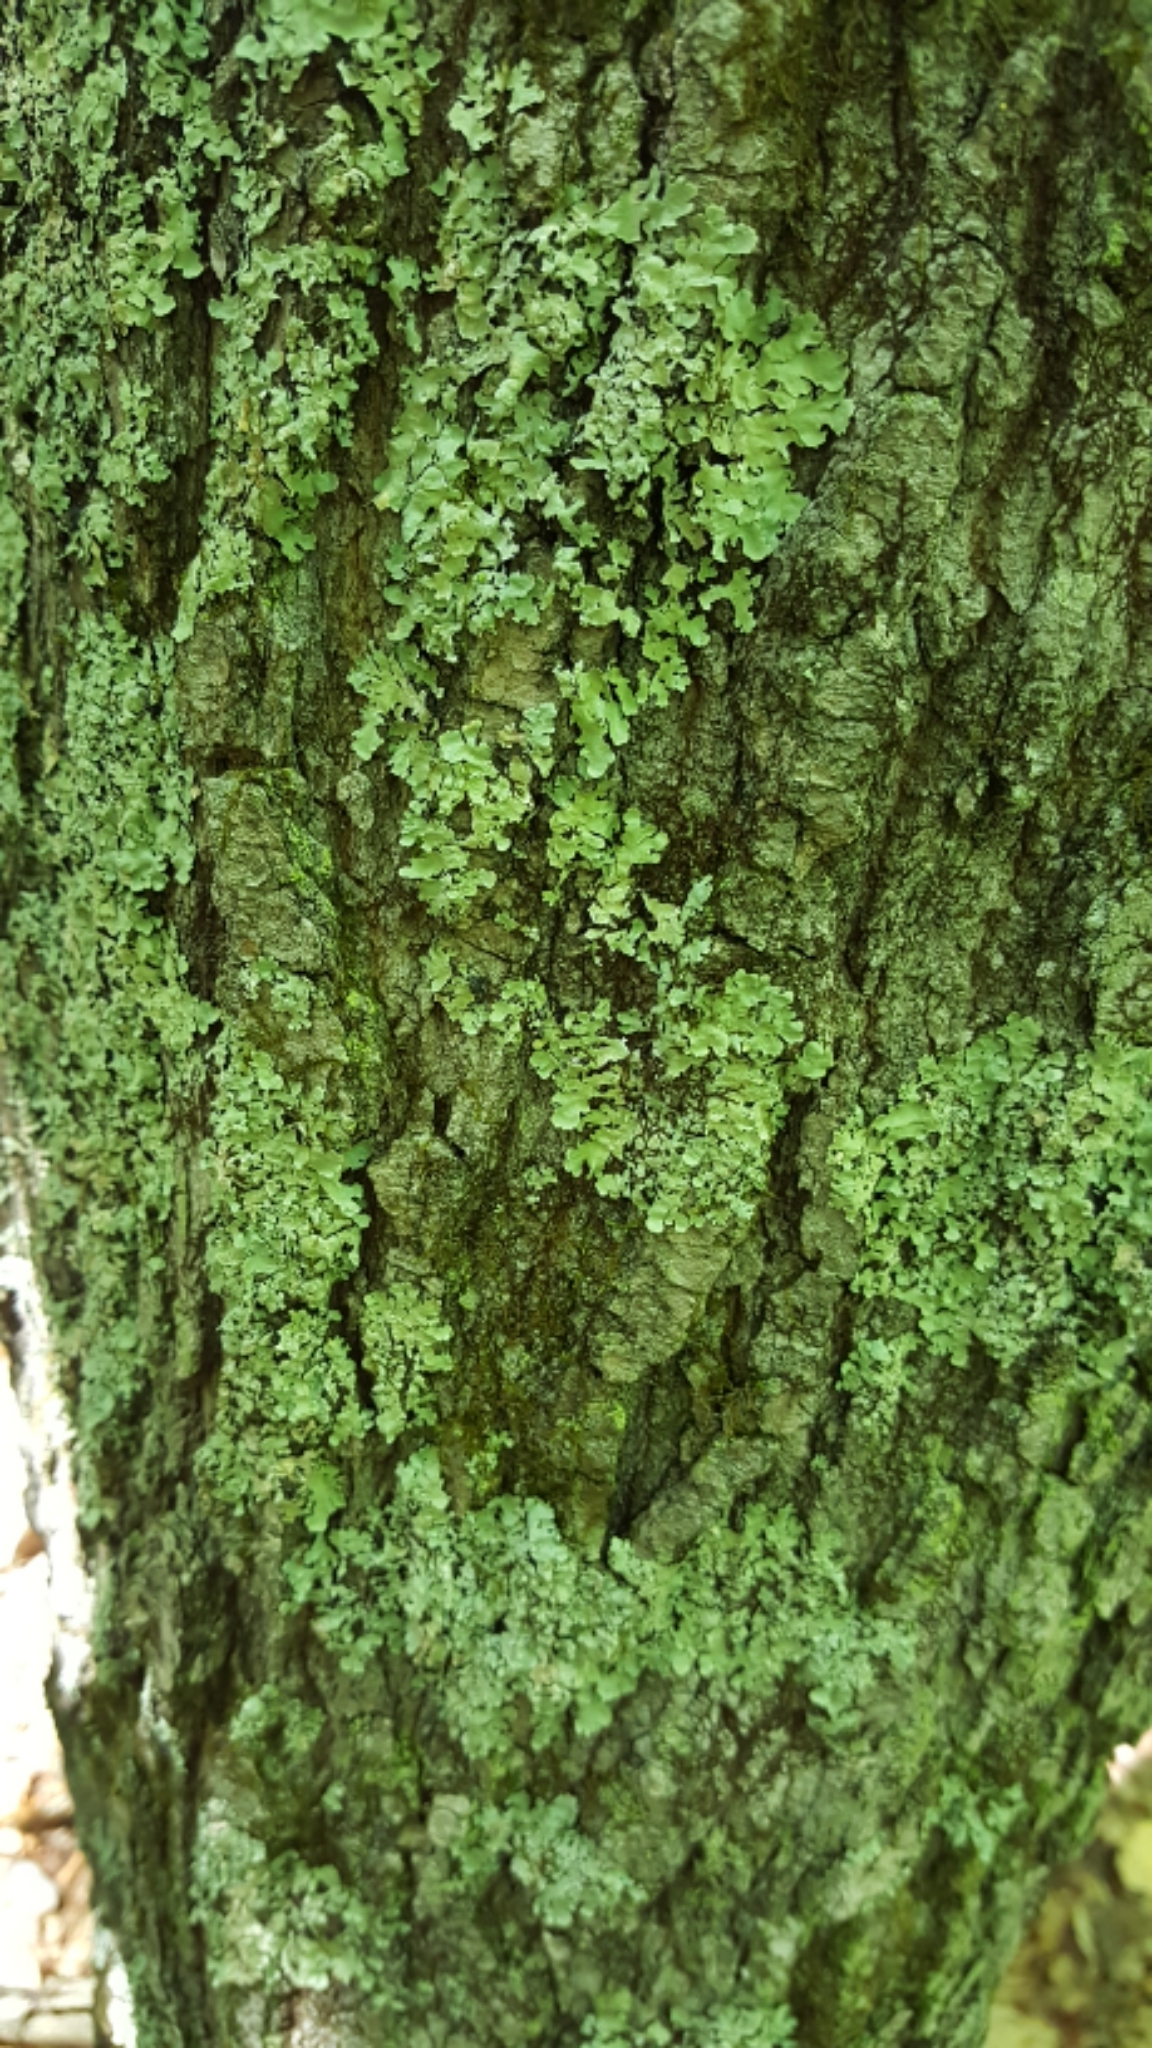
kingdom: Fungi
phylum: Ascomycota
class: Lecanoromycetes
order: Lecanorales
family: Parmeliaceae
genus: Flavoparmelia
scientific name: Flavoparmelia caperata
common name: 40-mile per hour lichen
